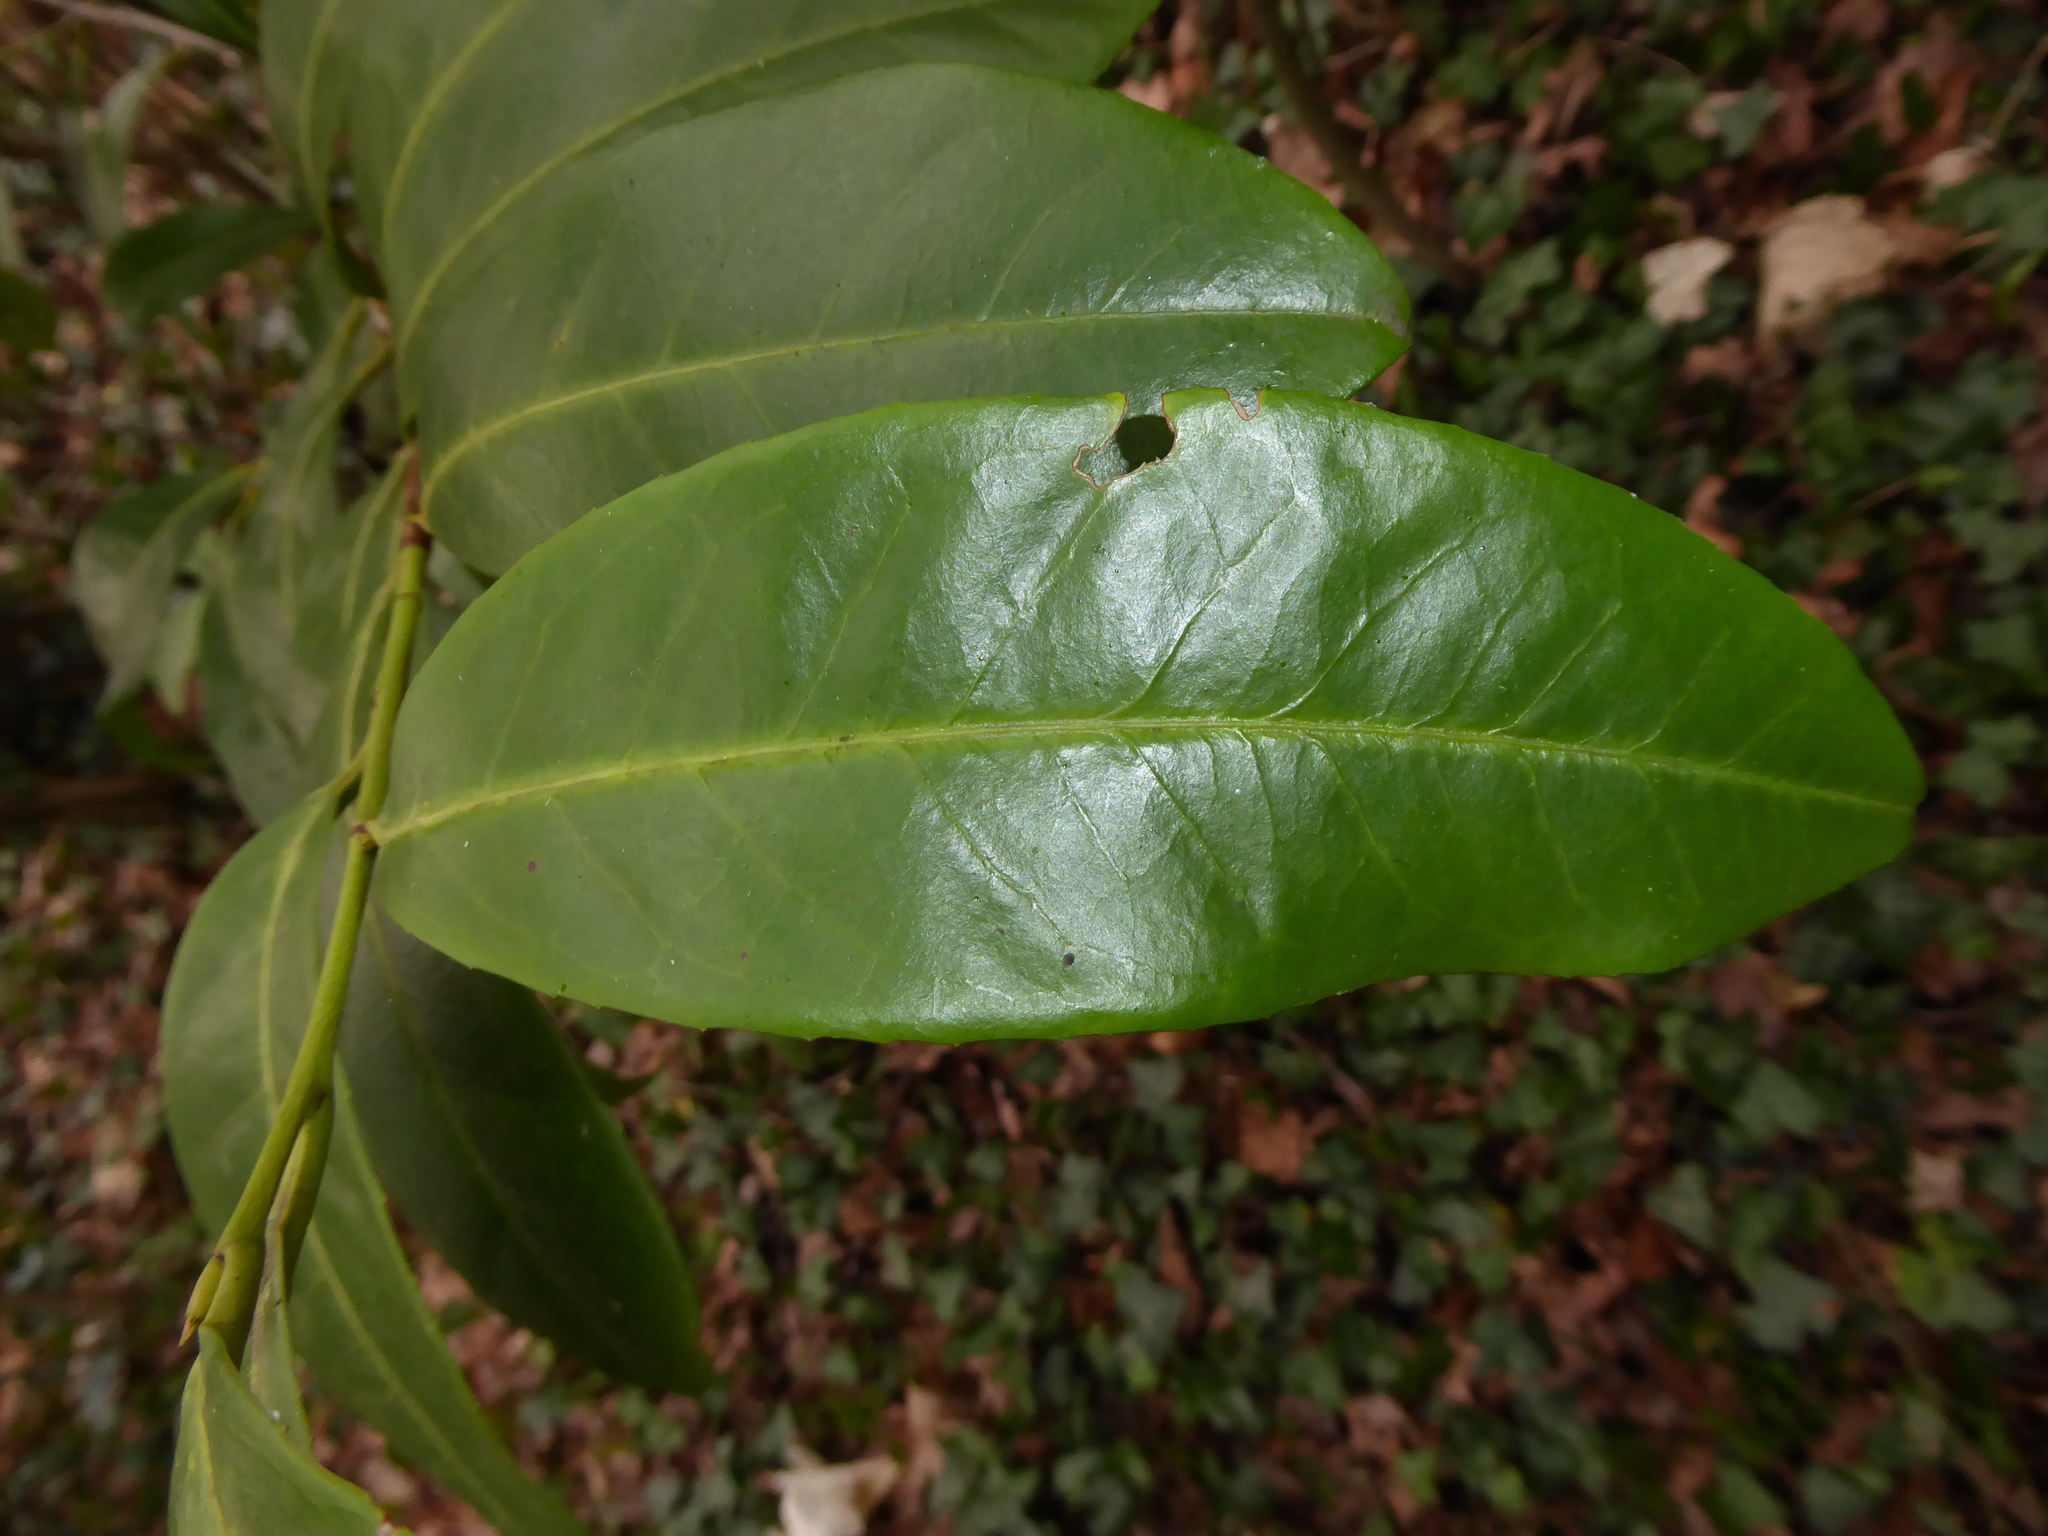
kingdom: Plantae
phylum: Tracheophyta
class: Magnoliopsida
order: Rosales
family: Rosaceae
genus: Prunus
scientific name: Prunus laurocerasus
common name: Cherry laurel
